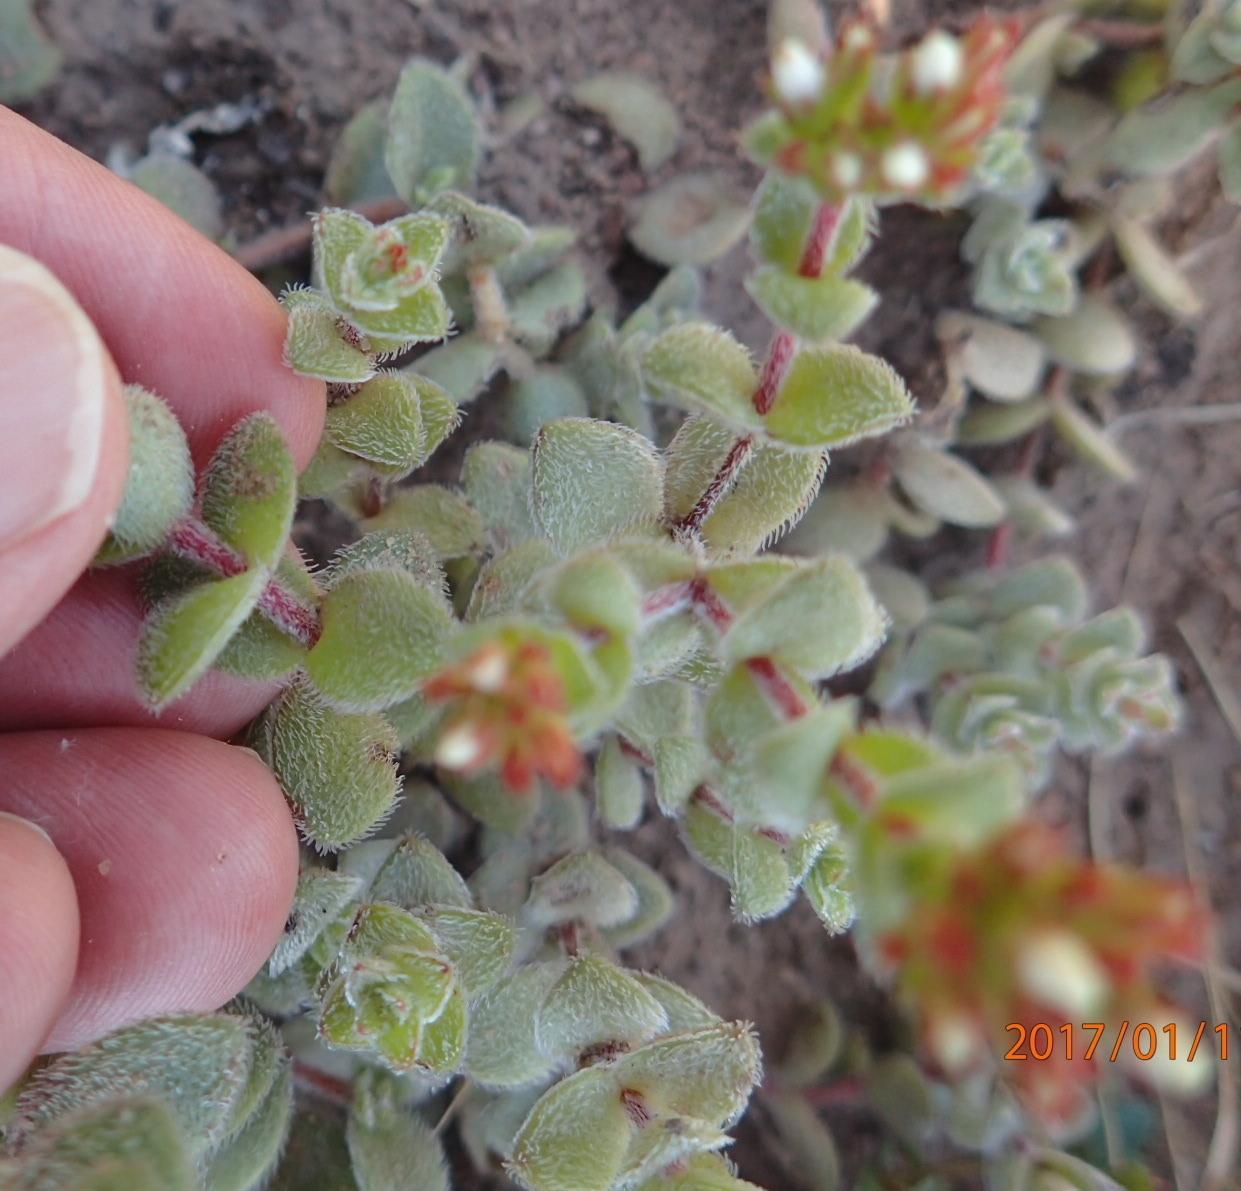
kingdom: Plantae
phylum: Tracheophyta
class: Magnoliopsida
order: Saxifragales
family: Crassulaceae
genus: Crassula
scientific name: Crassula obovata
